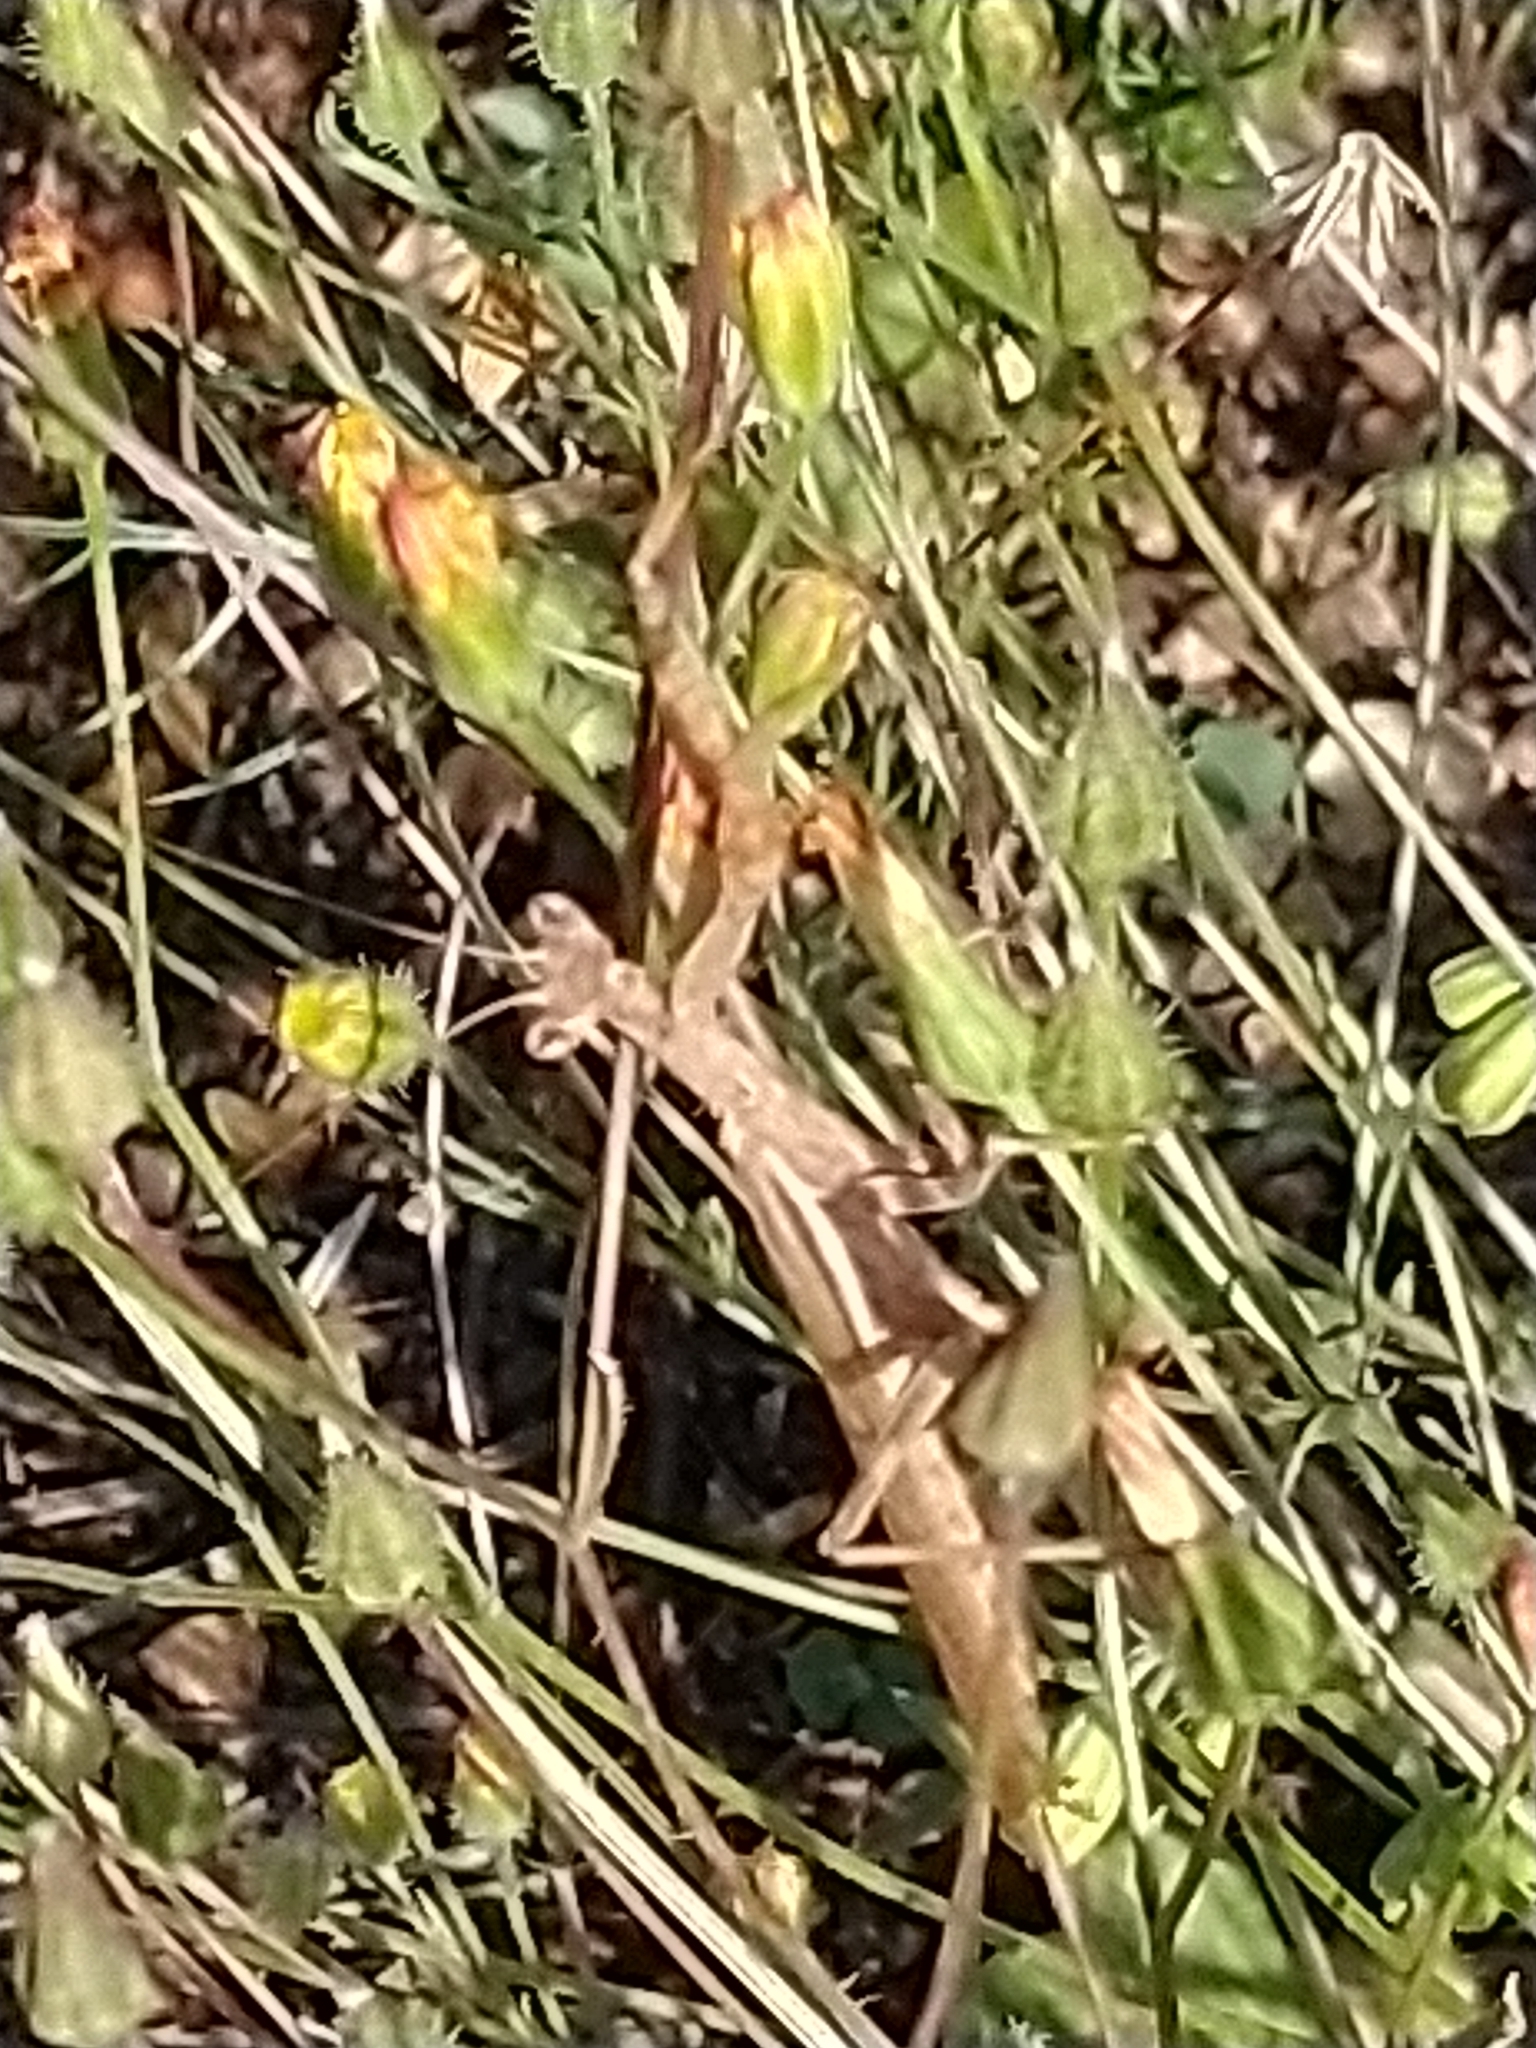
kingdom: Animalia
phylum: Arthropoda
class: Insecta
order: Mantodea
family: Amelidae
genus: Ameles
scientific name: Ameles heldreichi
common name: Heldreich's dwarf mantis
